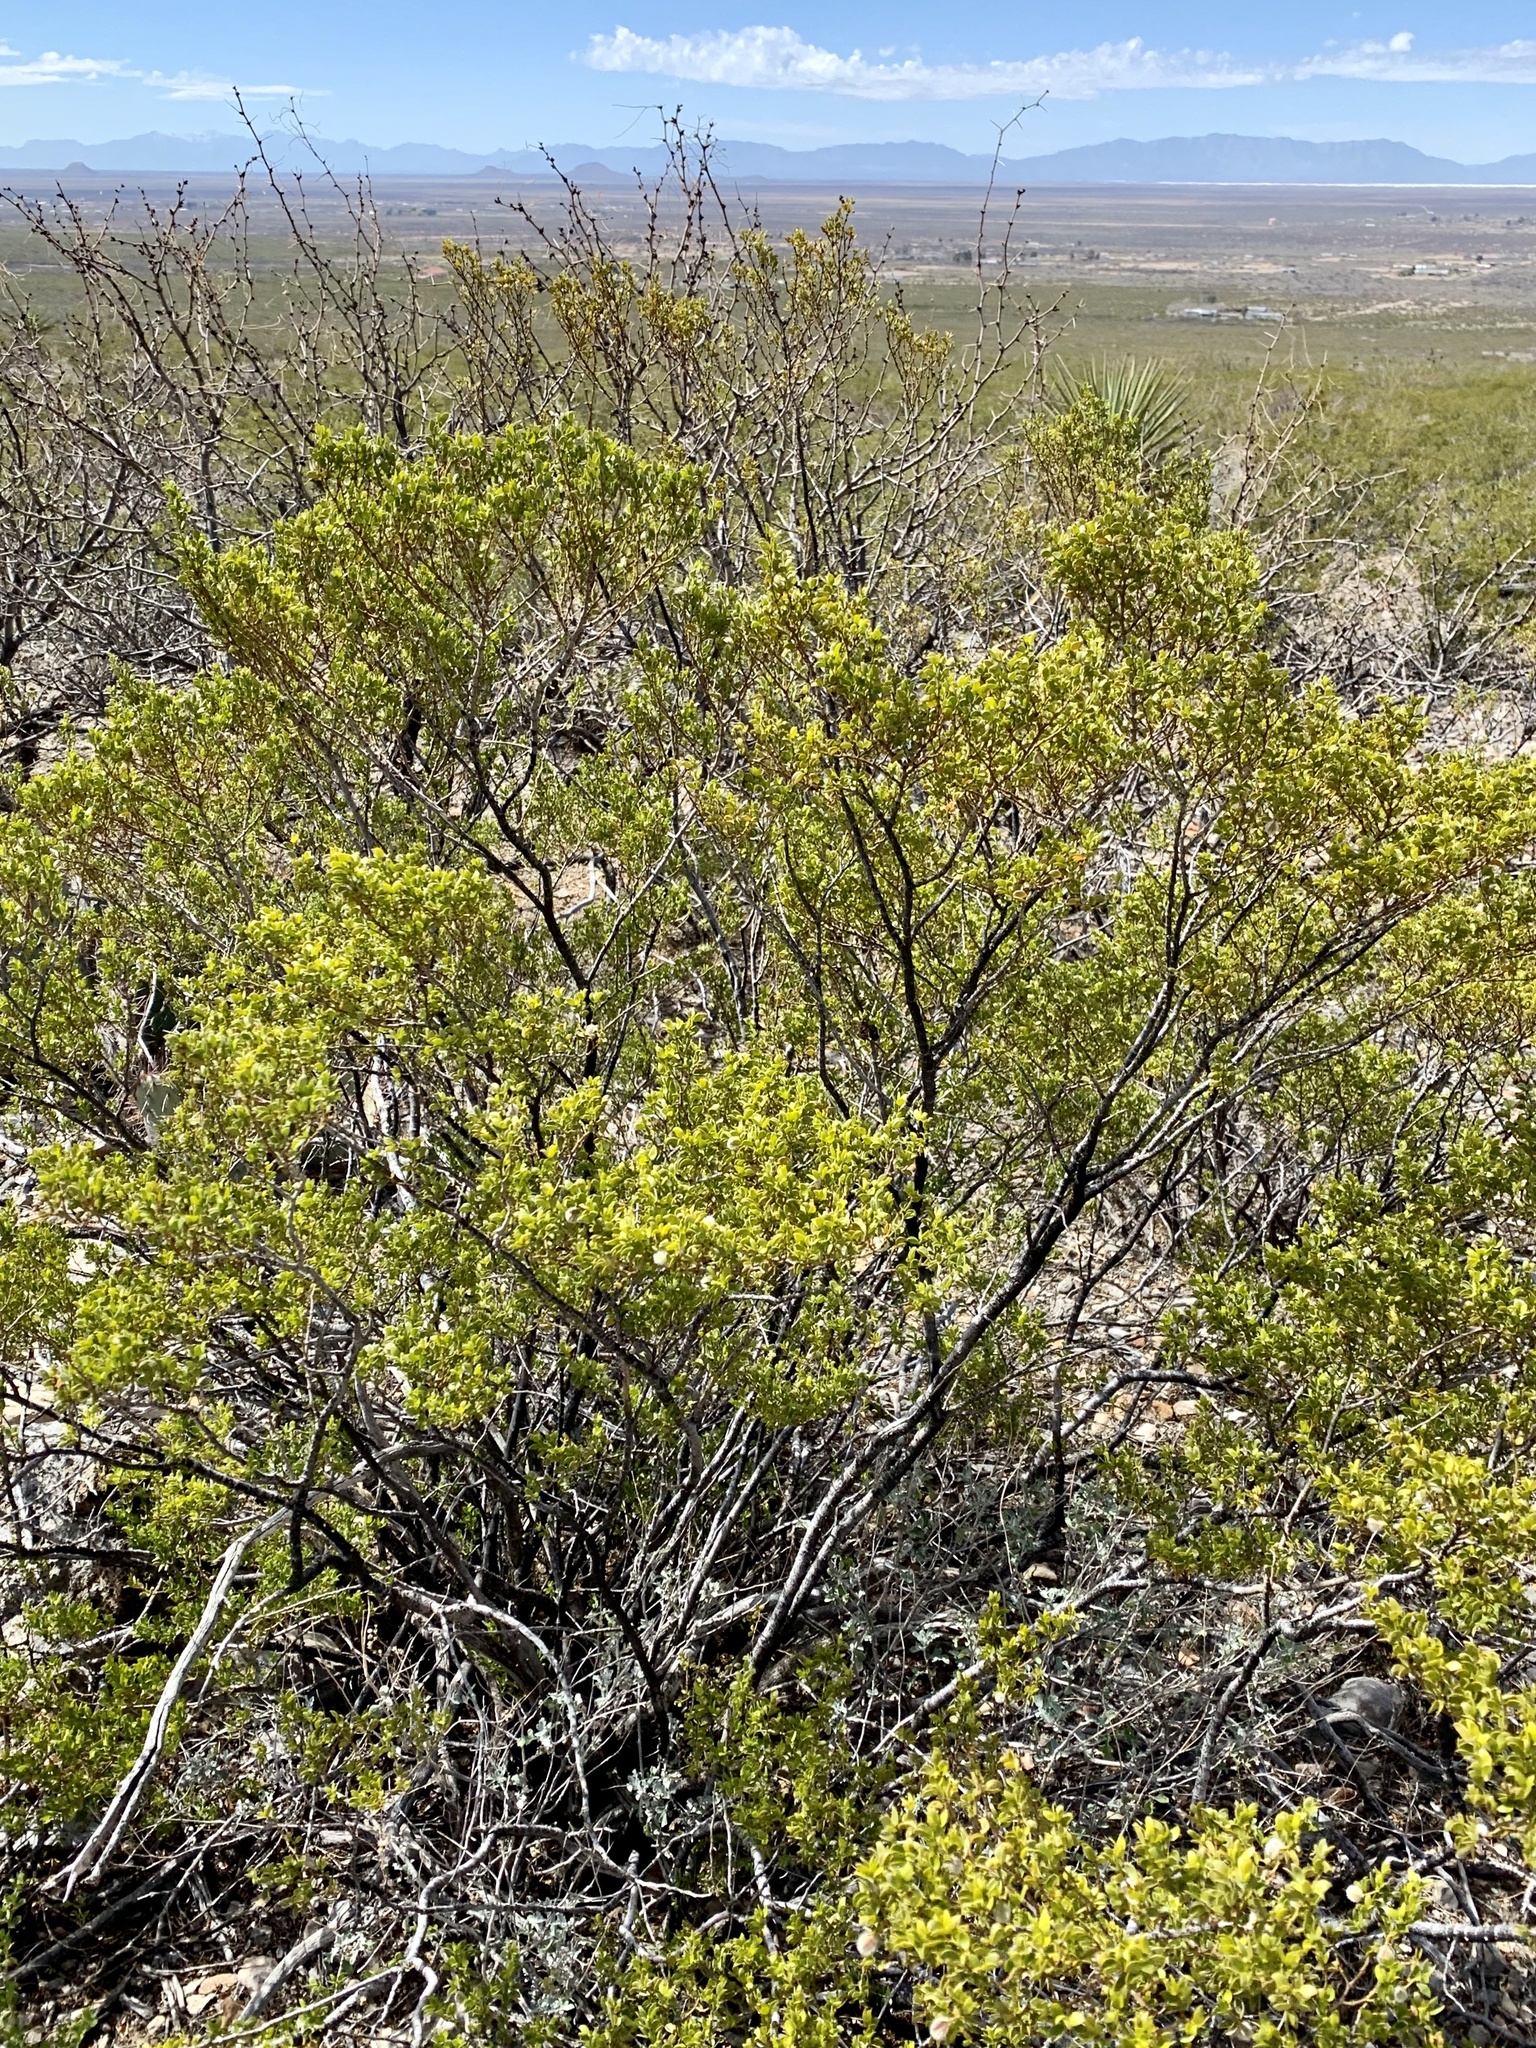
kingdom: Plantae
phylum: Tracheophyta
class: Magnoliopsida
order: Zygophyllales
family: Zygophyllaceae
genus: Larrea
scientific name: Larrea tridentata
